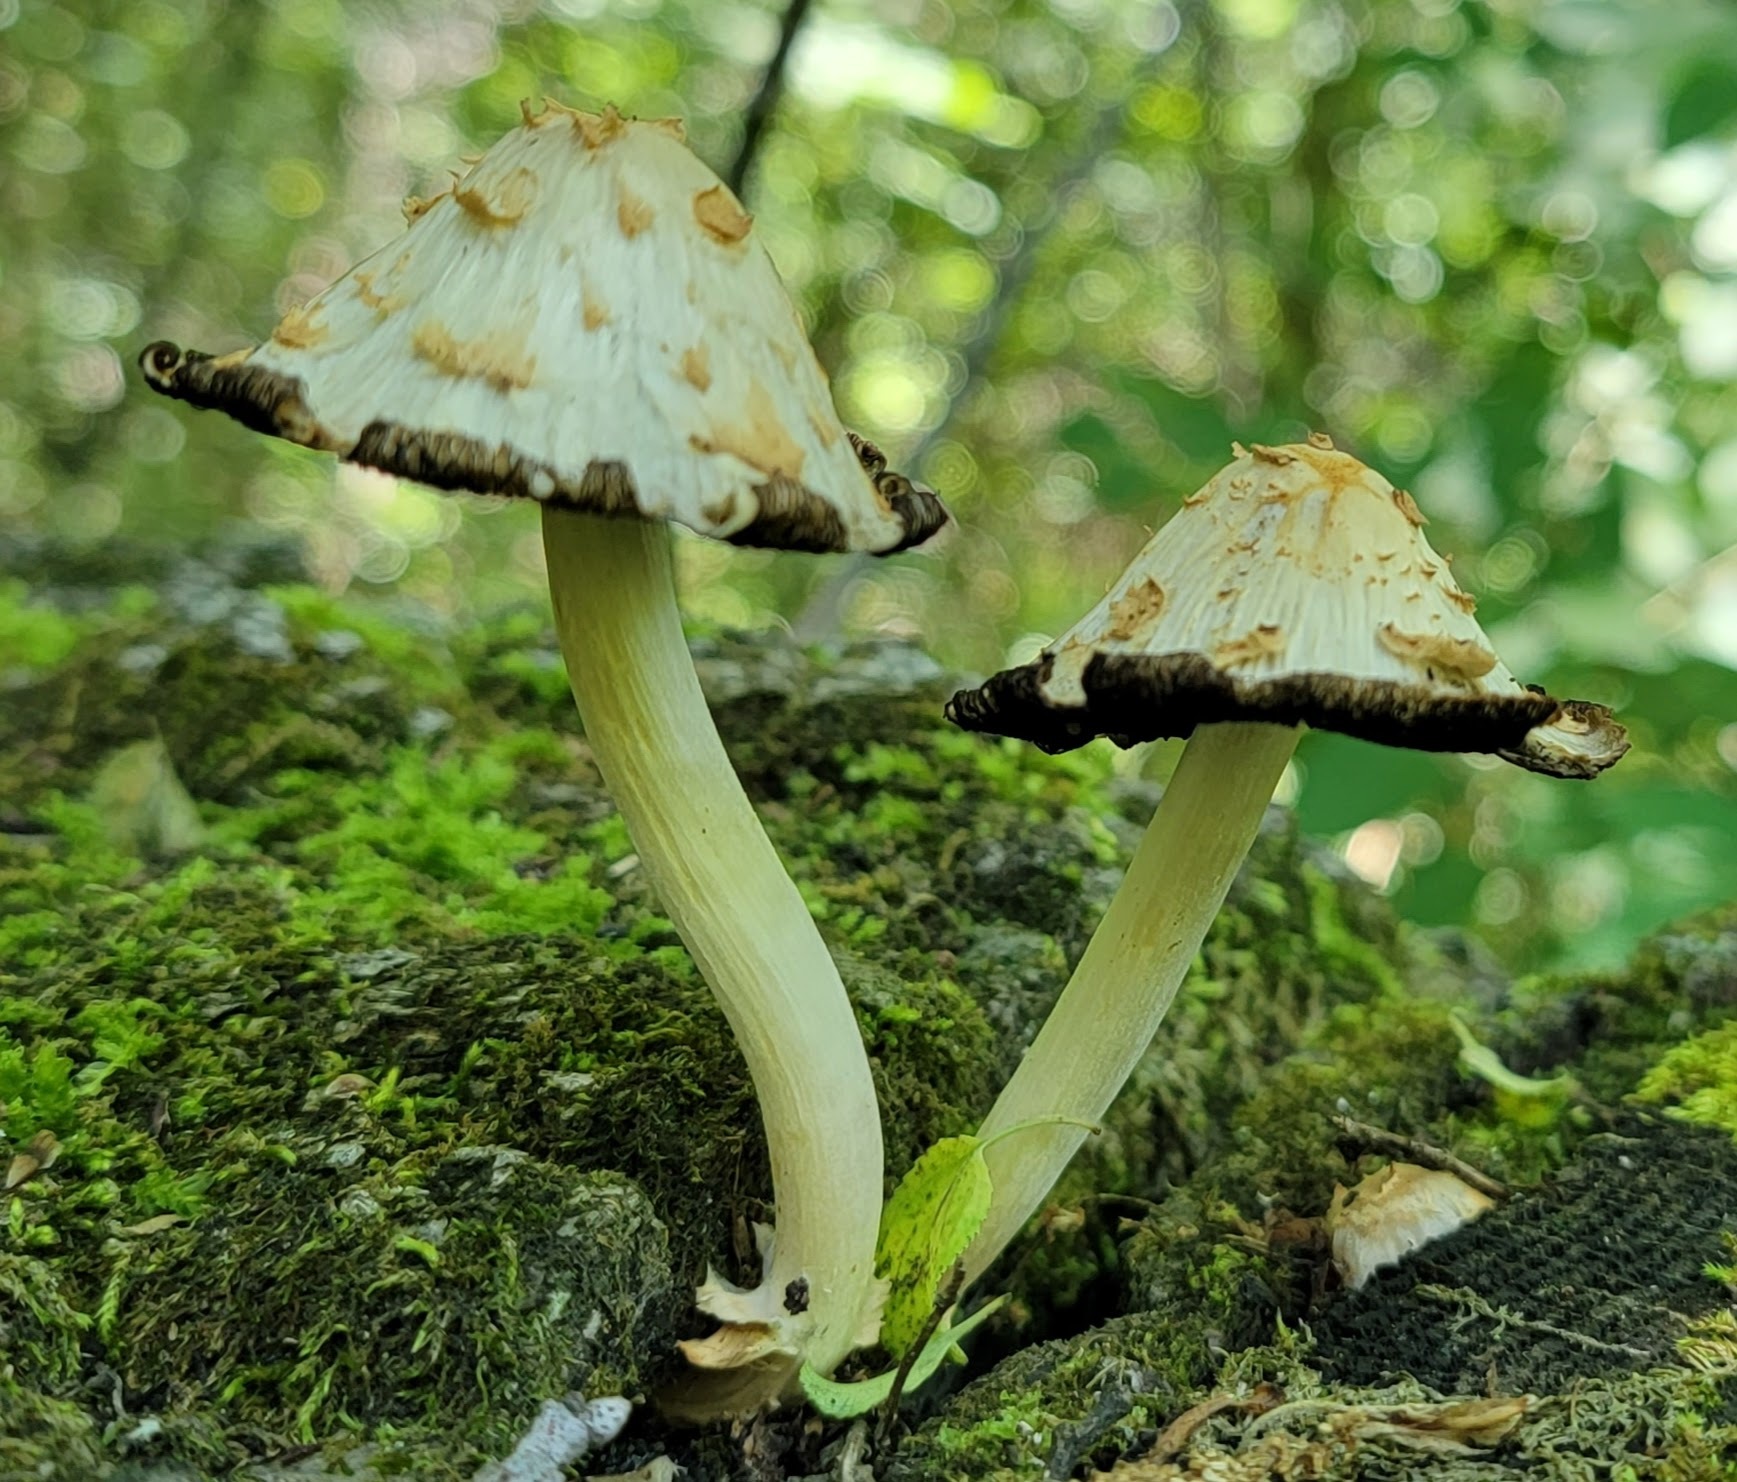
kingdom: Fungi
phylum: Basidiomycota
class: Agaricomycetes
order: Agaricales
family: Psathyrellaceae
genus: Coprinopsis
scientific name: Coprinopsis variegata
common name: Scaly ink cap
